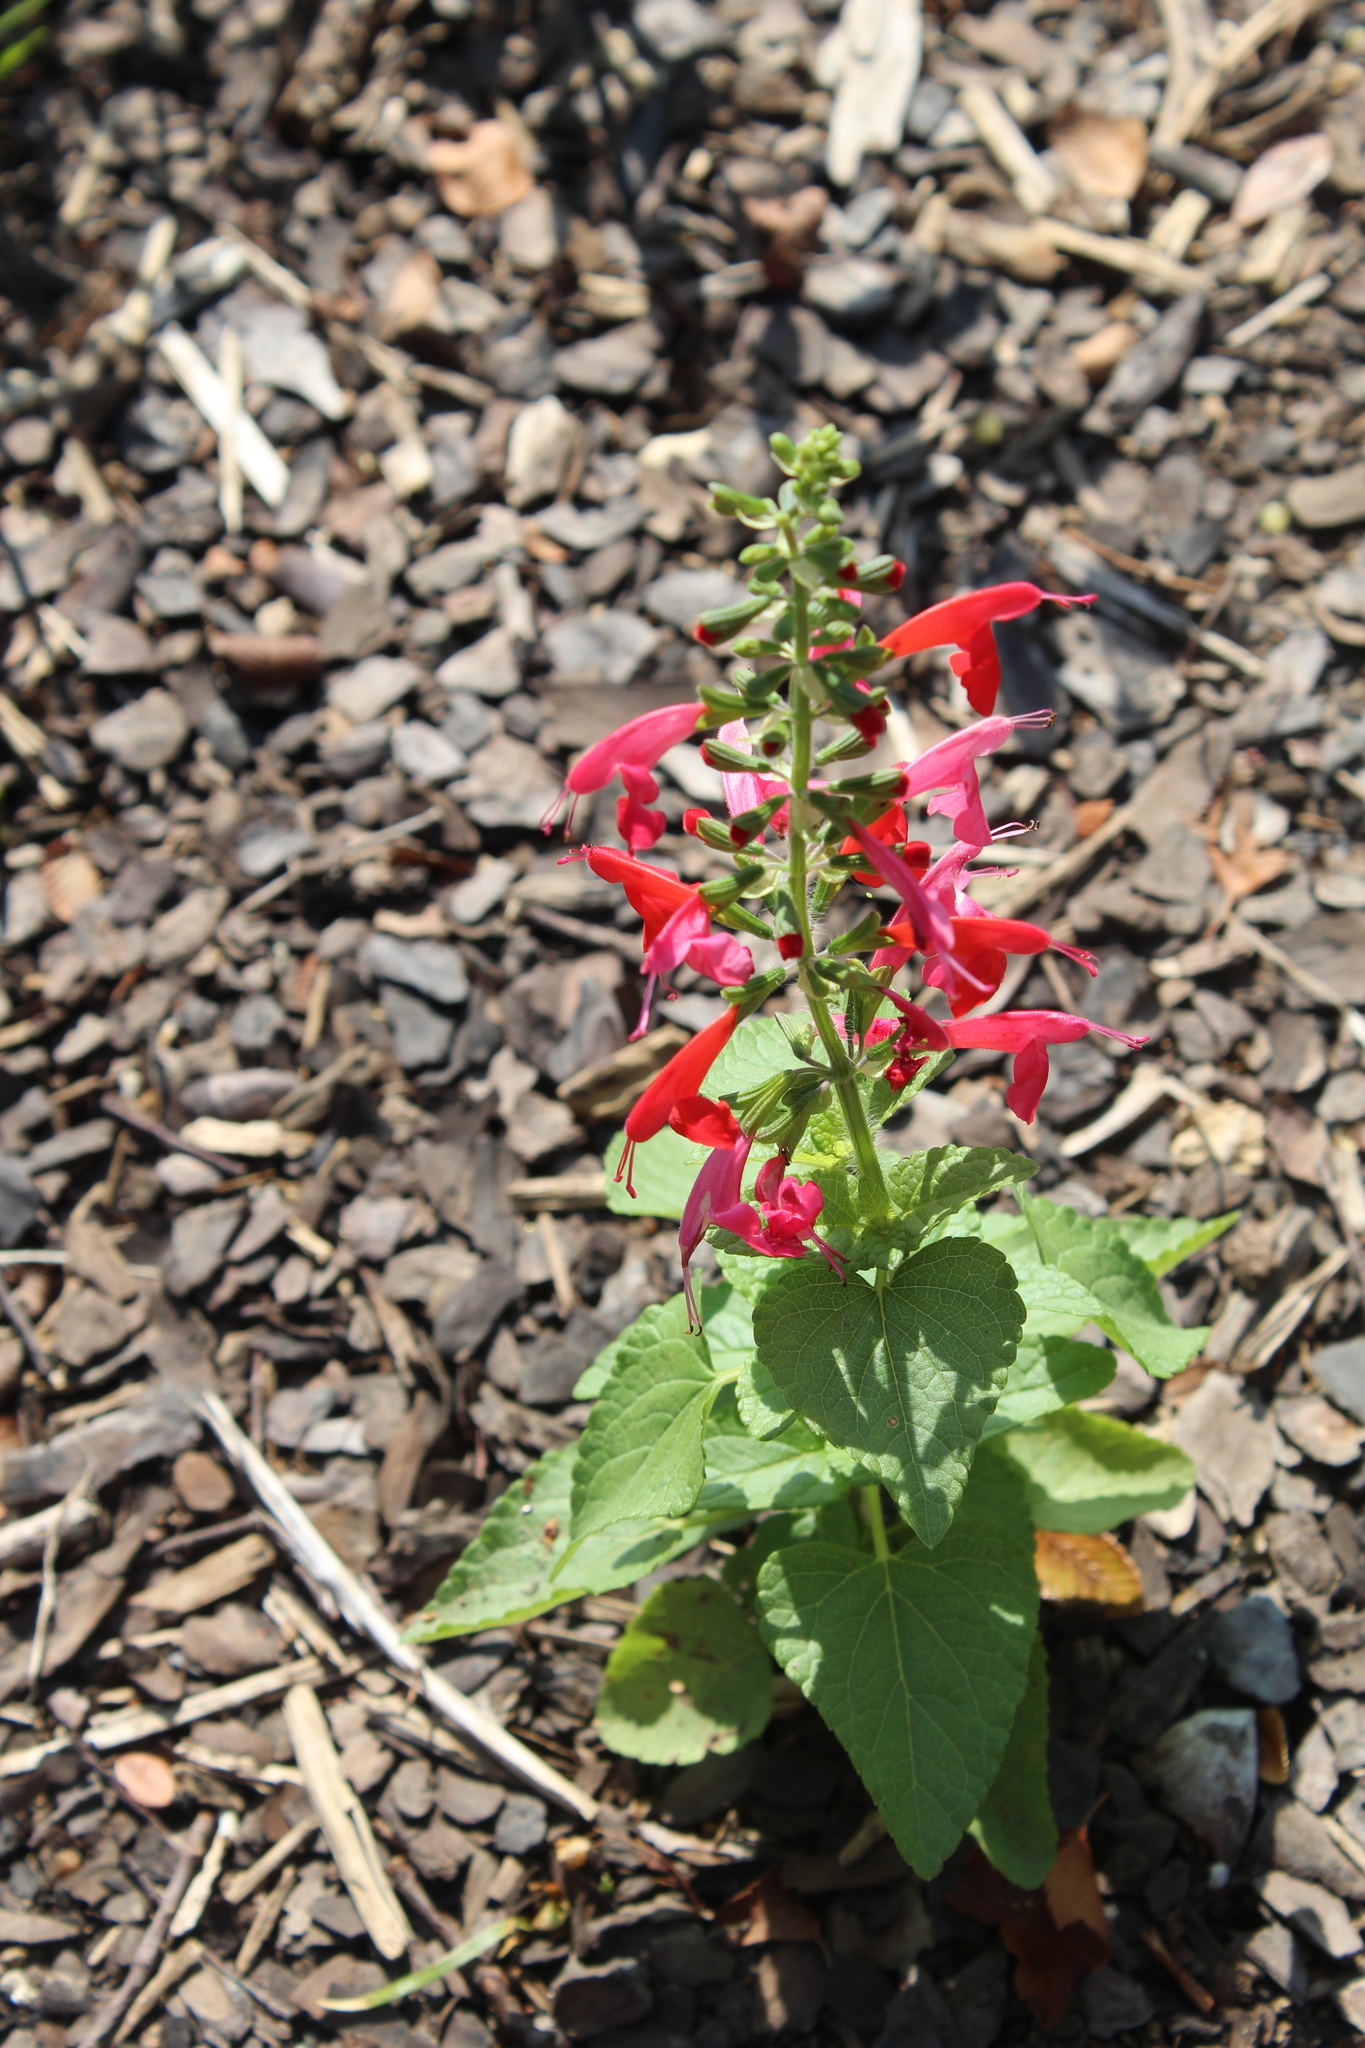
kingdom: Plantae
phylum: Tracheophyta
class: Magnoliopsida
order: Lamiales
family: Lamiaceae
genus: Salvia
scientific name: Salvia coccinea
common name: Blood sage
